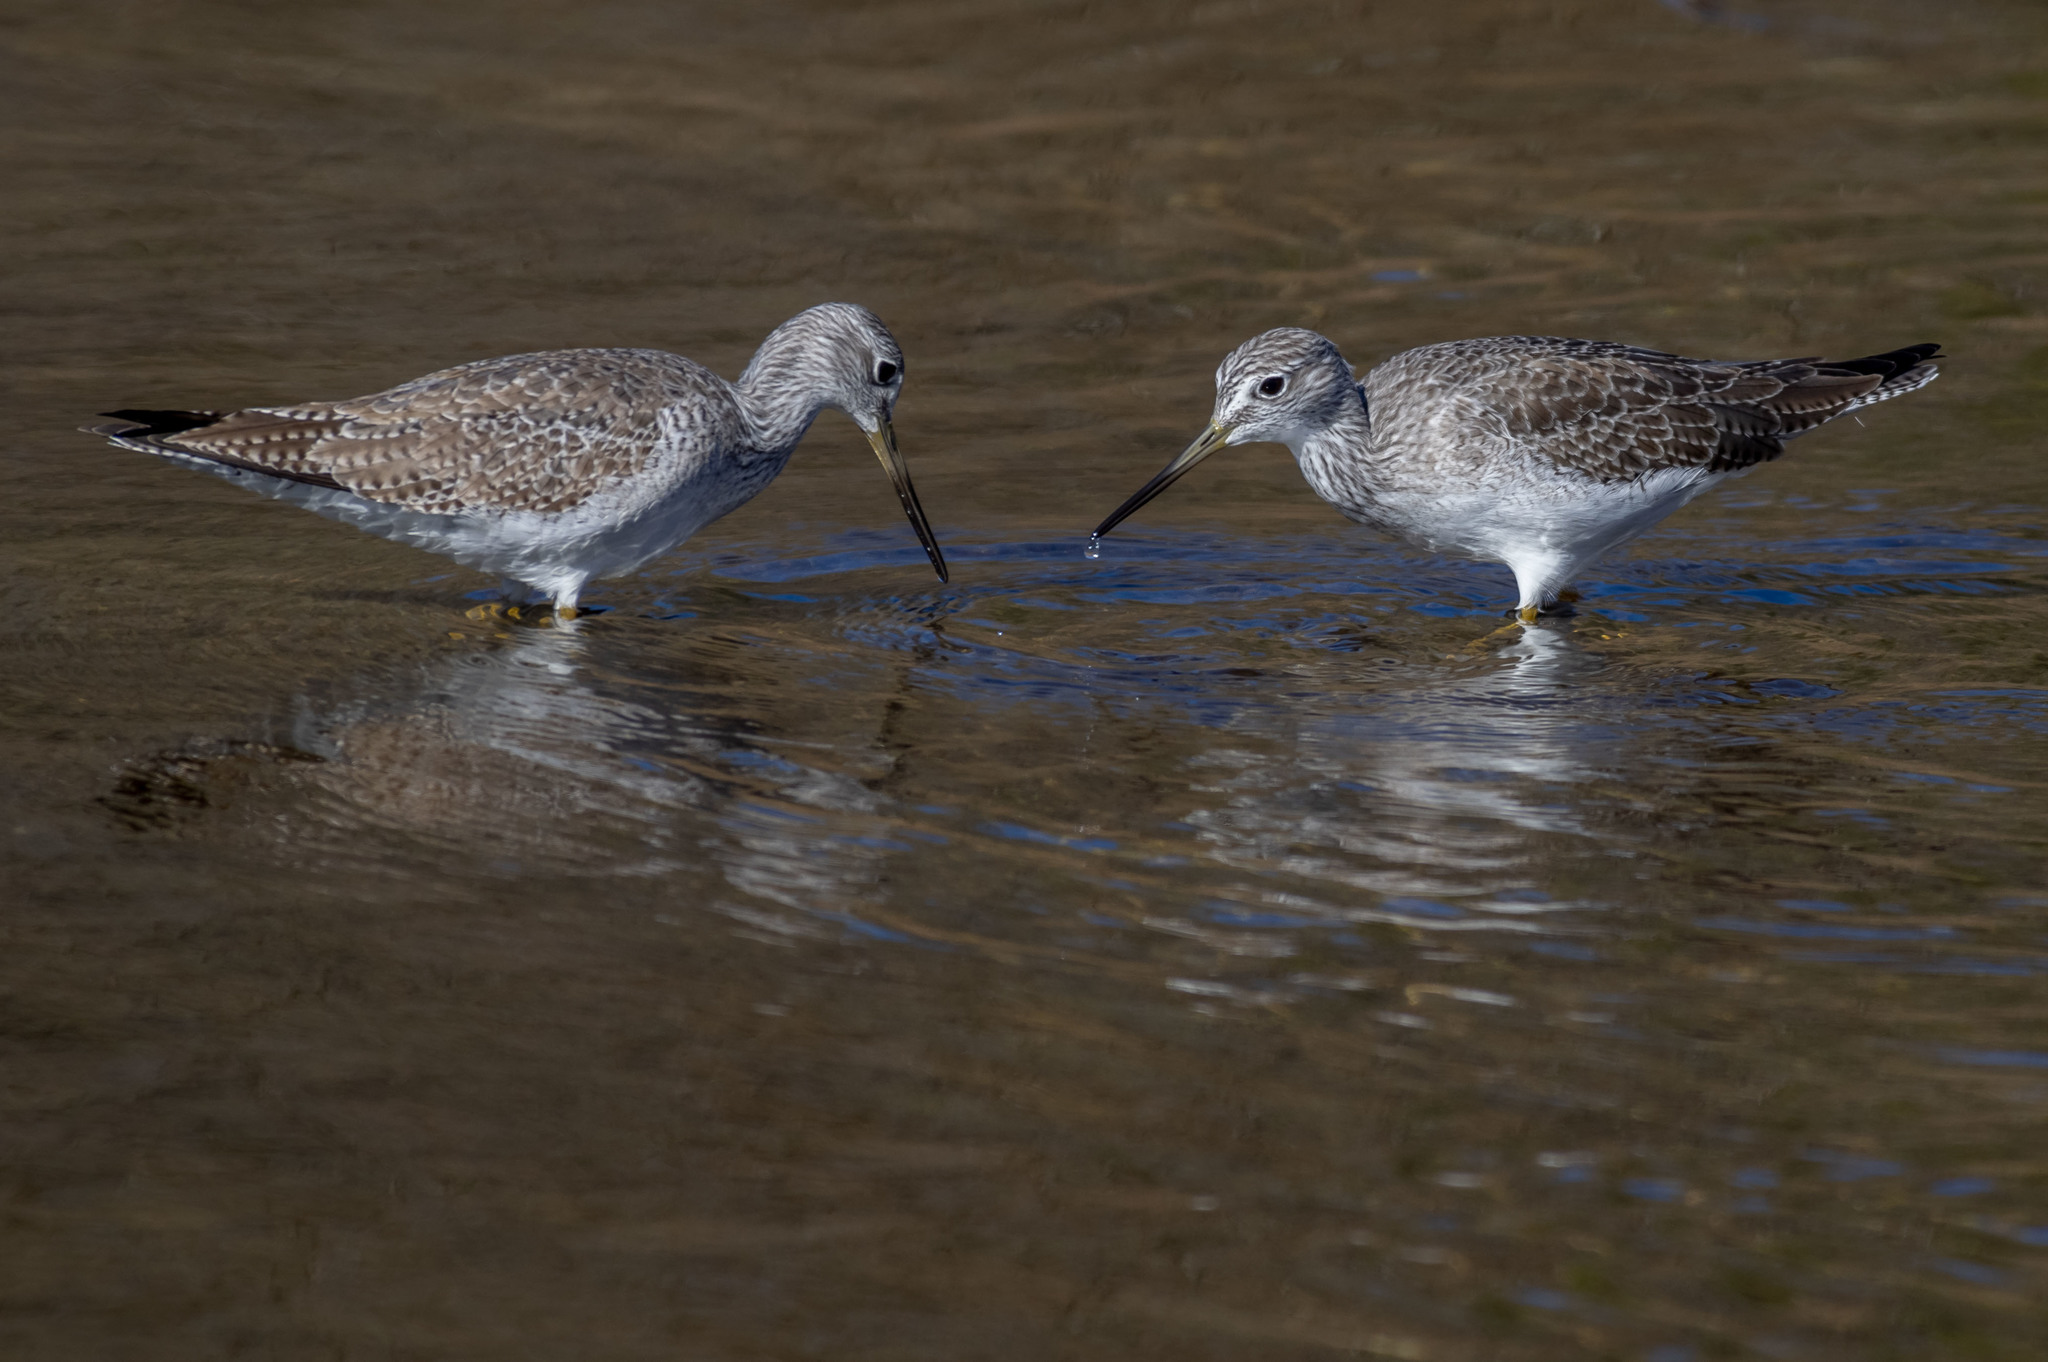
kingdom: Animalia
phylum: Chordata
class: Aves
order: Charadriiformes
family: Scolopacidae
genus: Tringa
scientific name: Tringa melanoleuca
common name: Greater yellowlegs
